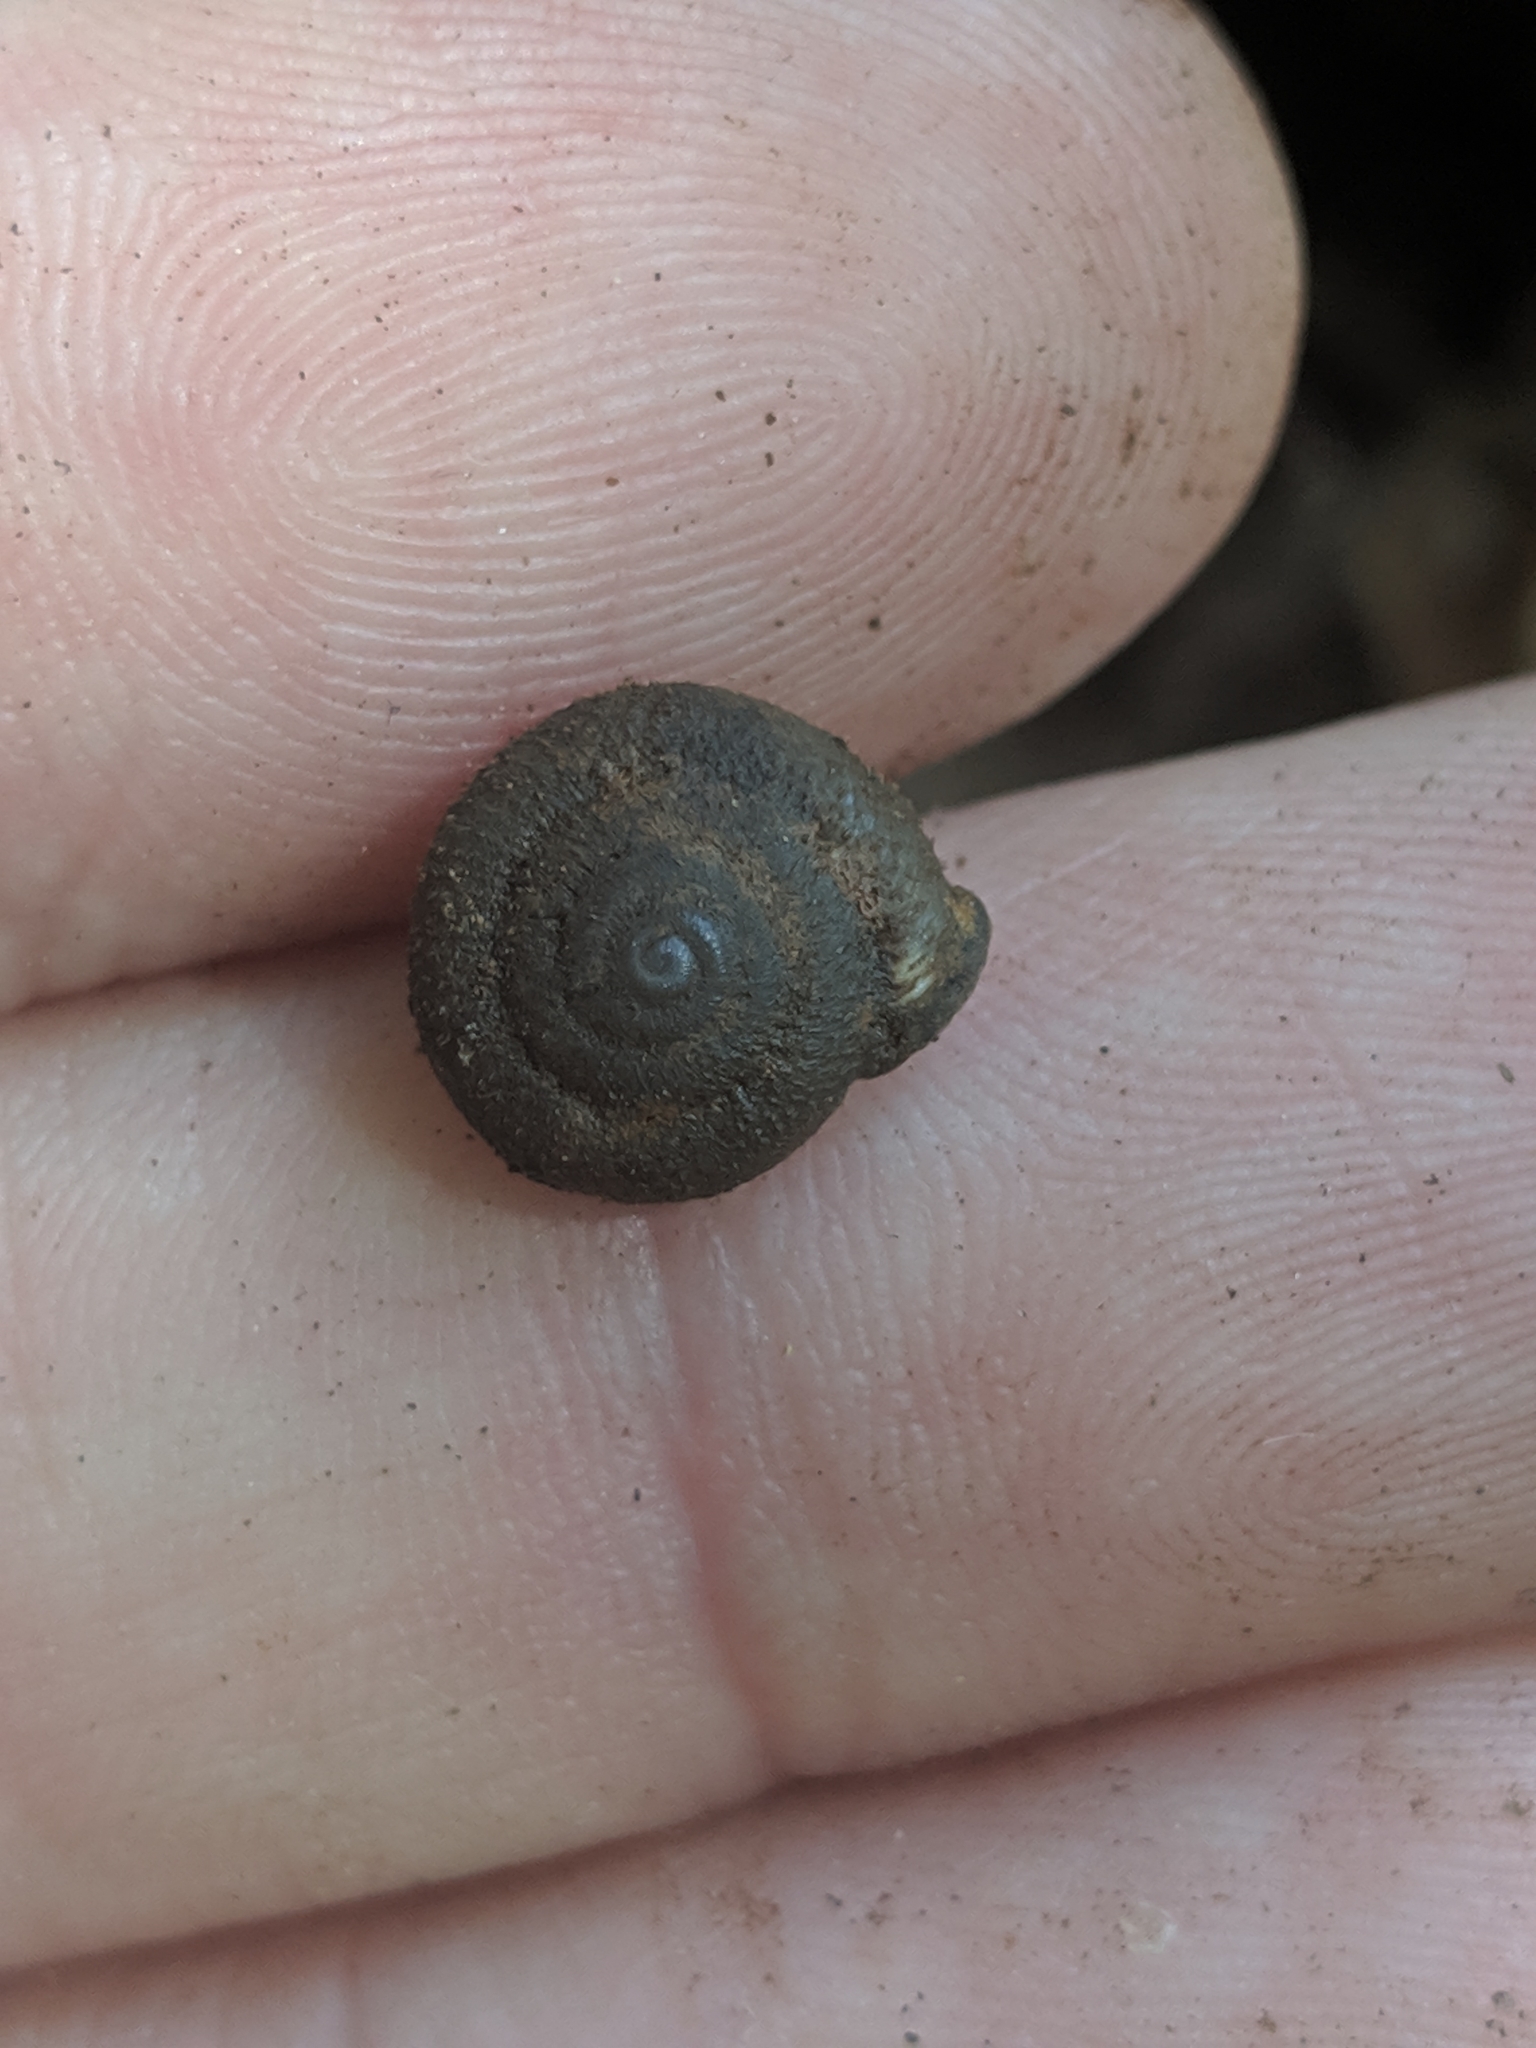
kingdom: Animalia
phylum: Mollusca
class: Gastropoda
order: Stylommatophora
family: Polygyridae
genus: Inflectarius
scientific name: Inflectarius rugeli
